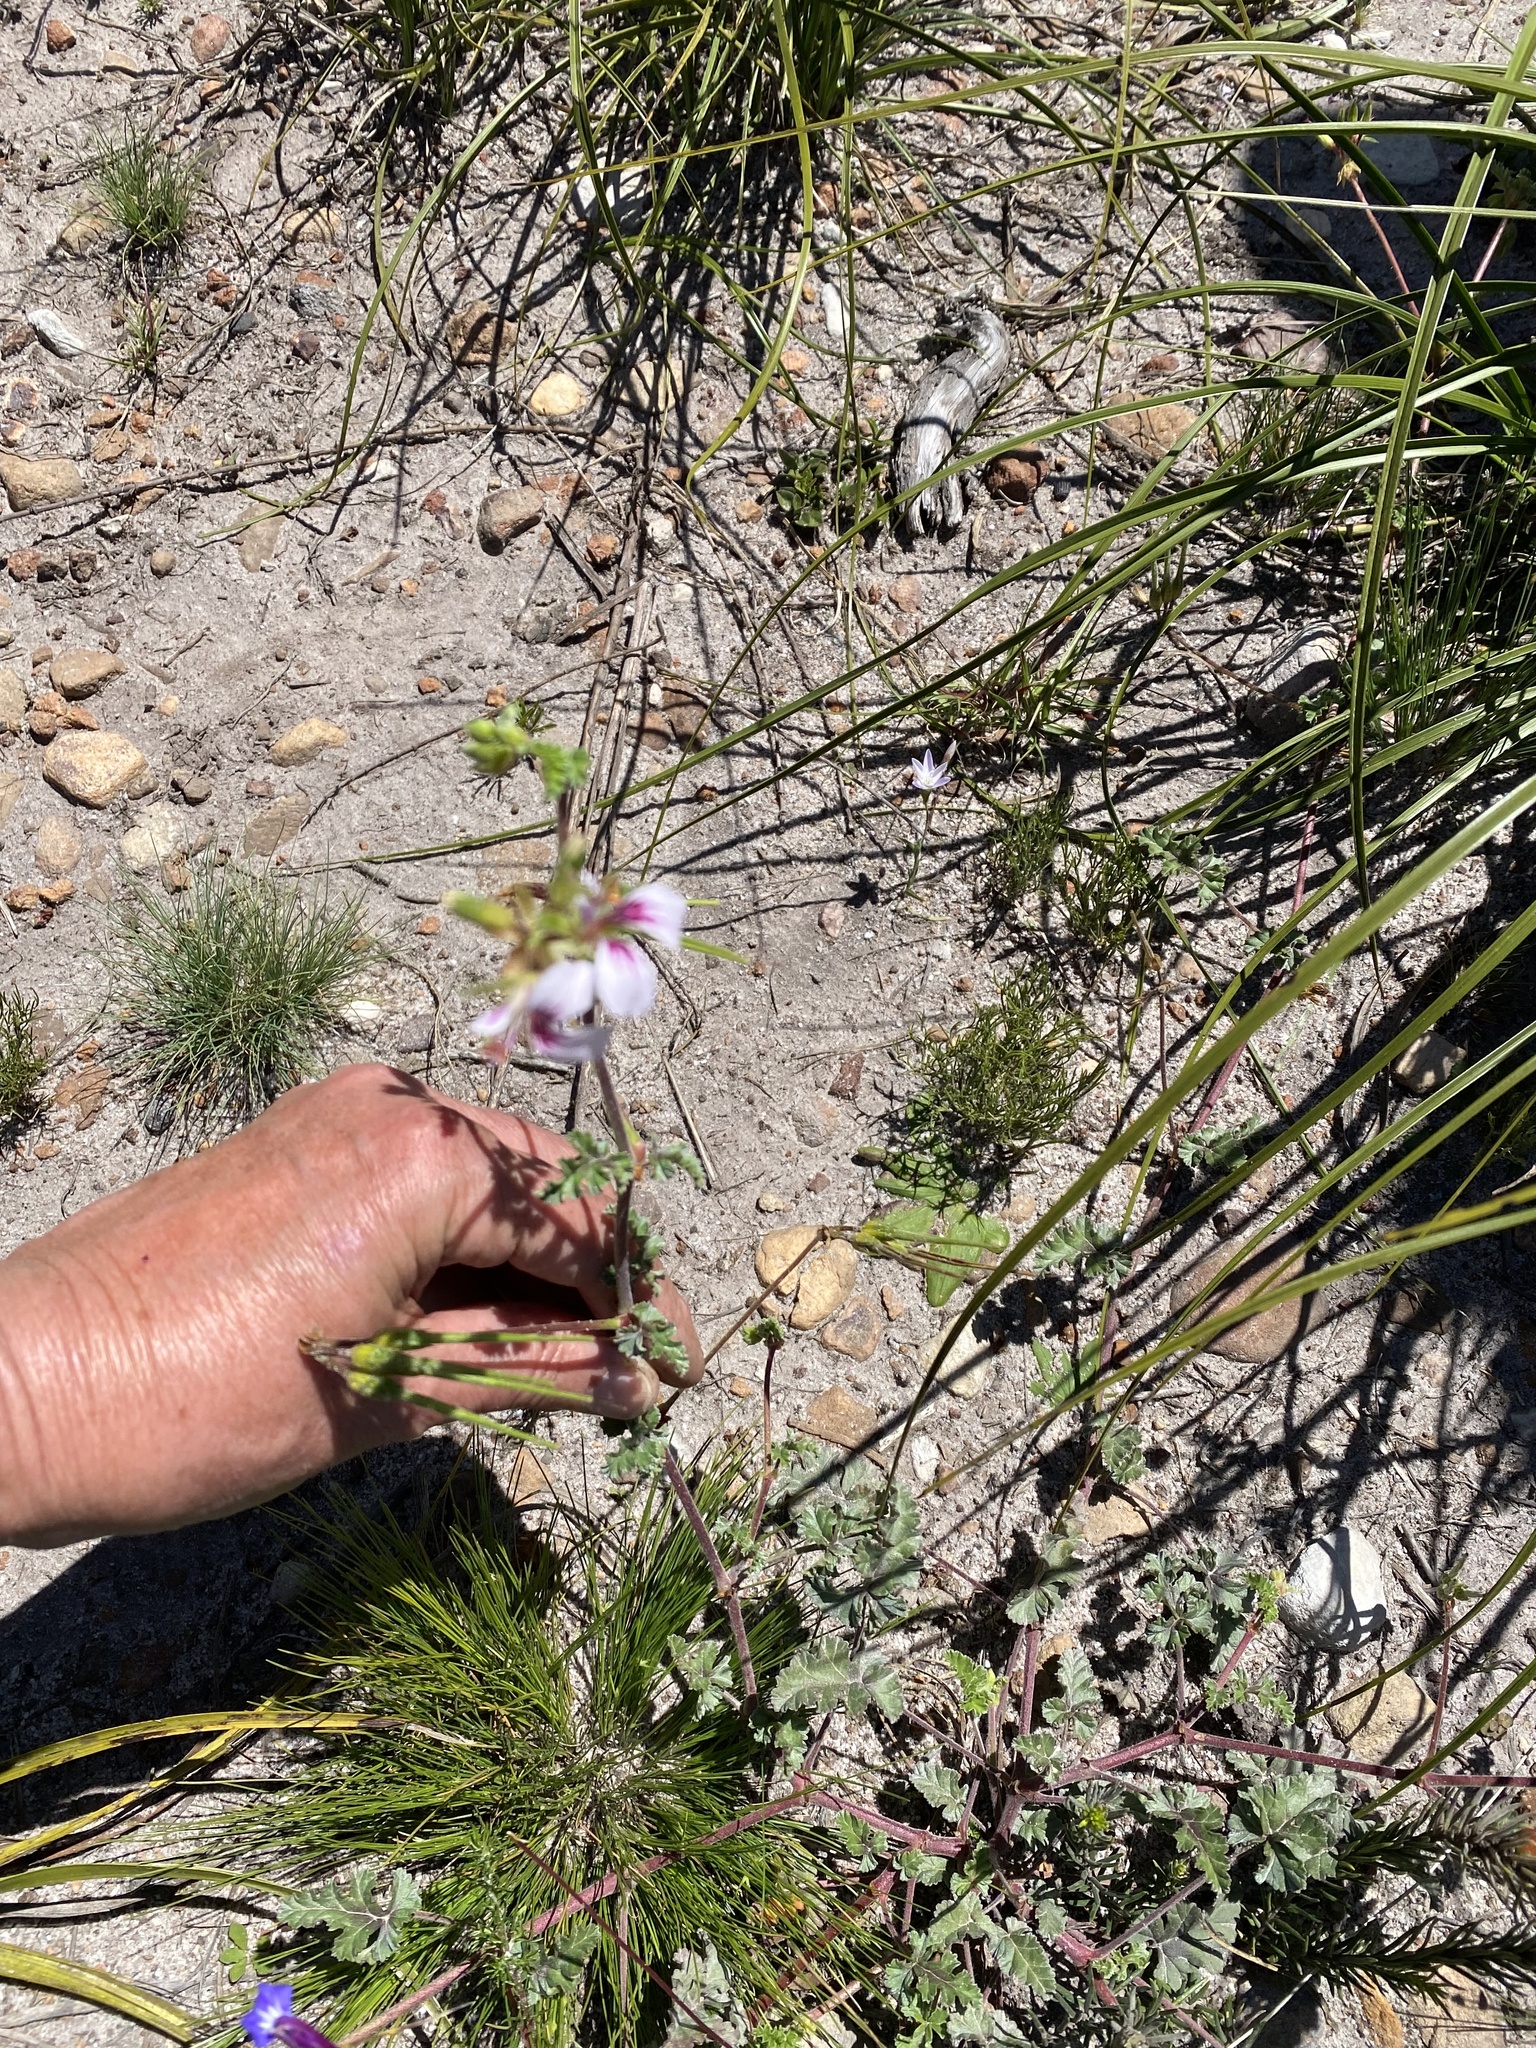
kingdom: Plantae
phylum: Tracheophyta
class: Magnoliopsida
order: Geraniales
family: Geraniaceae
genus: Pelargonium
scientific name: Pelargonium candicans
